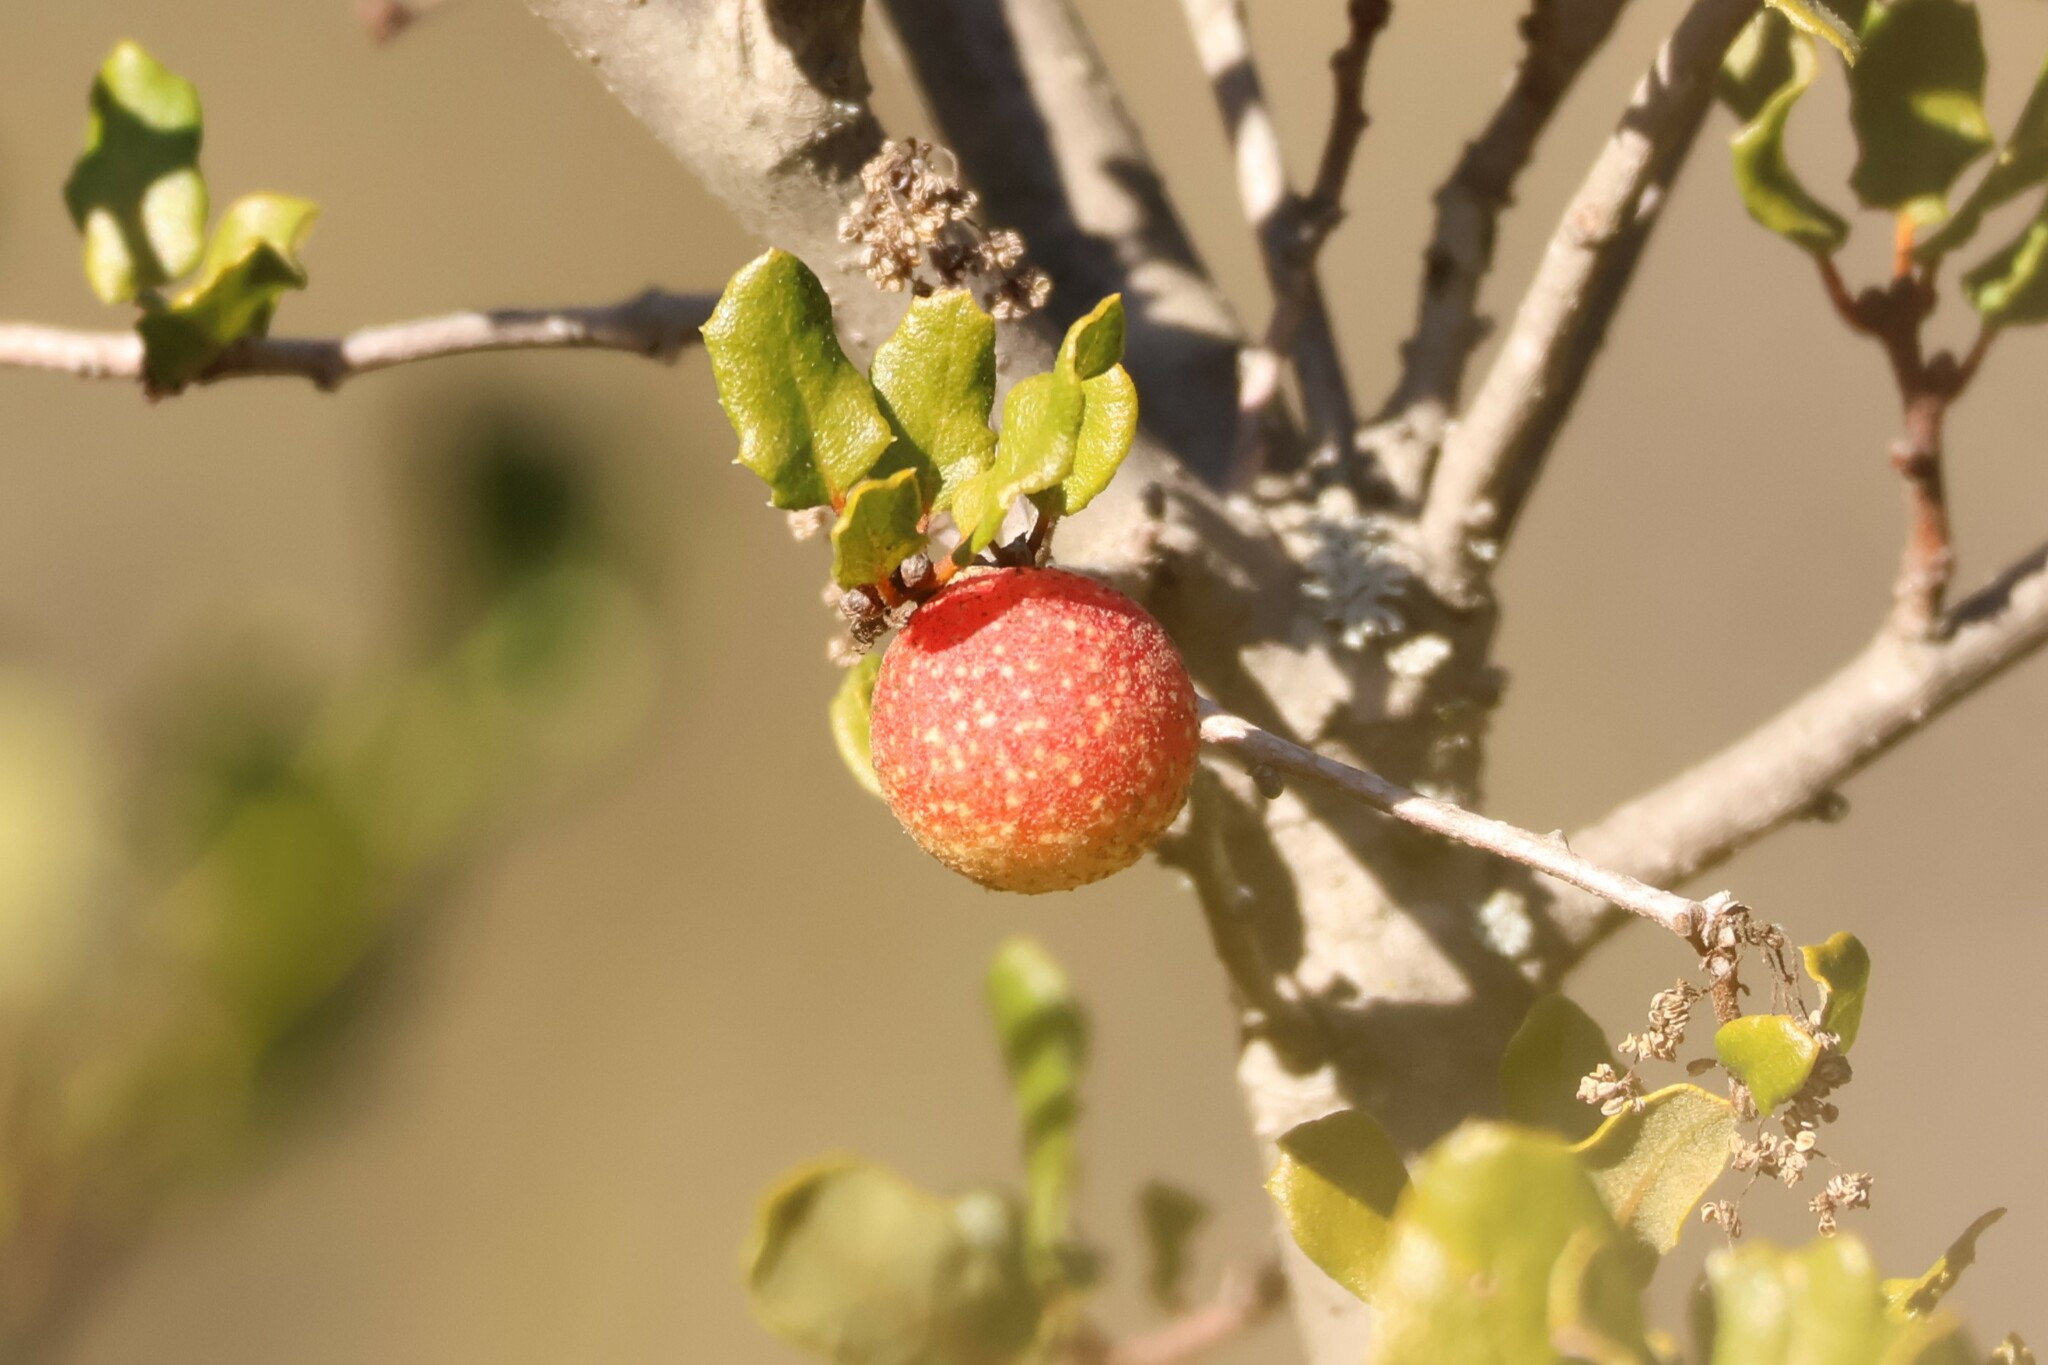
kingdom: Animalia
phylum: Arthropoda
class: Insecta
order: Hymenoptera
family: Cynipidae
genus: Burnettweldia
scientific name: Burnettweldia
